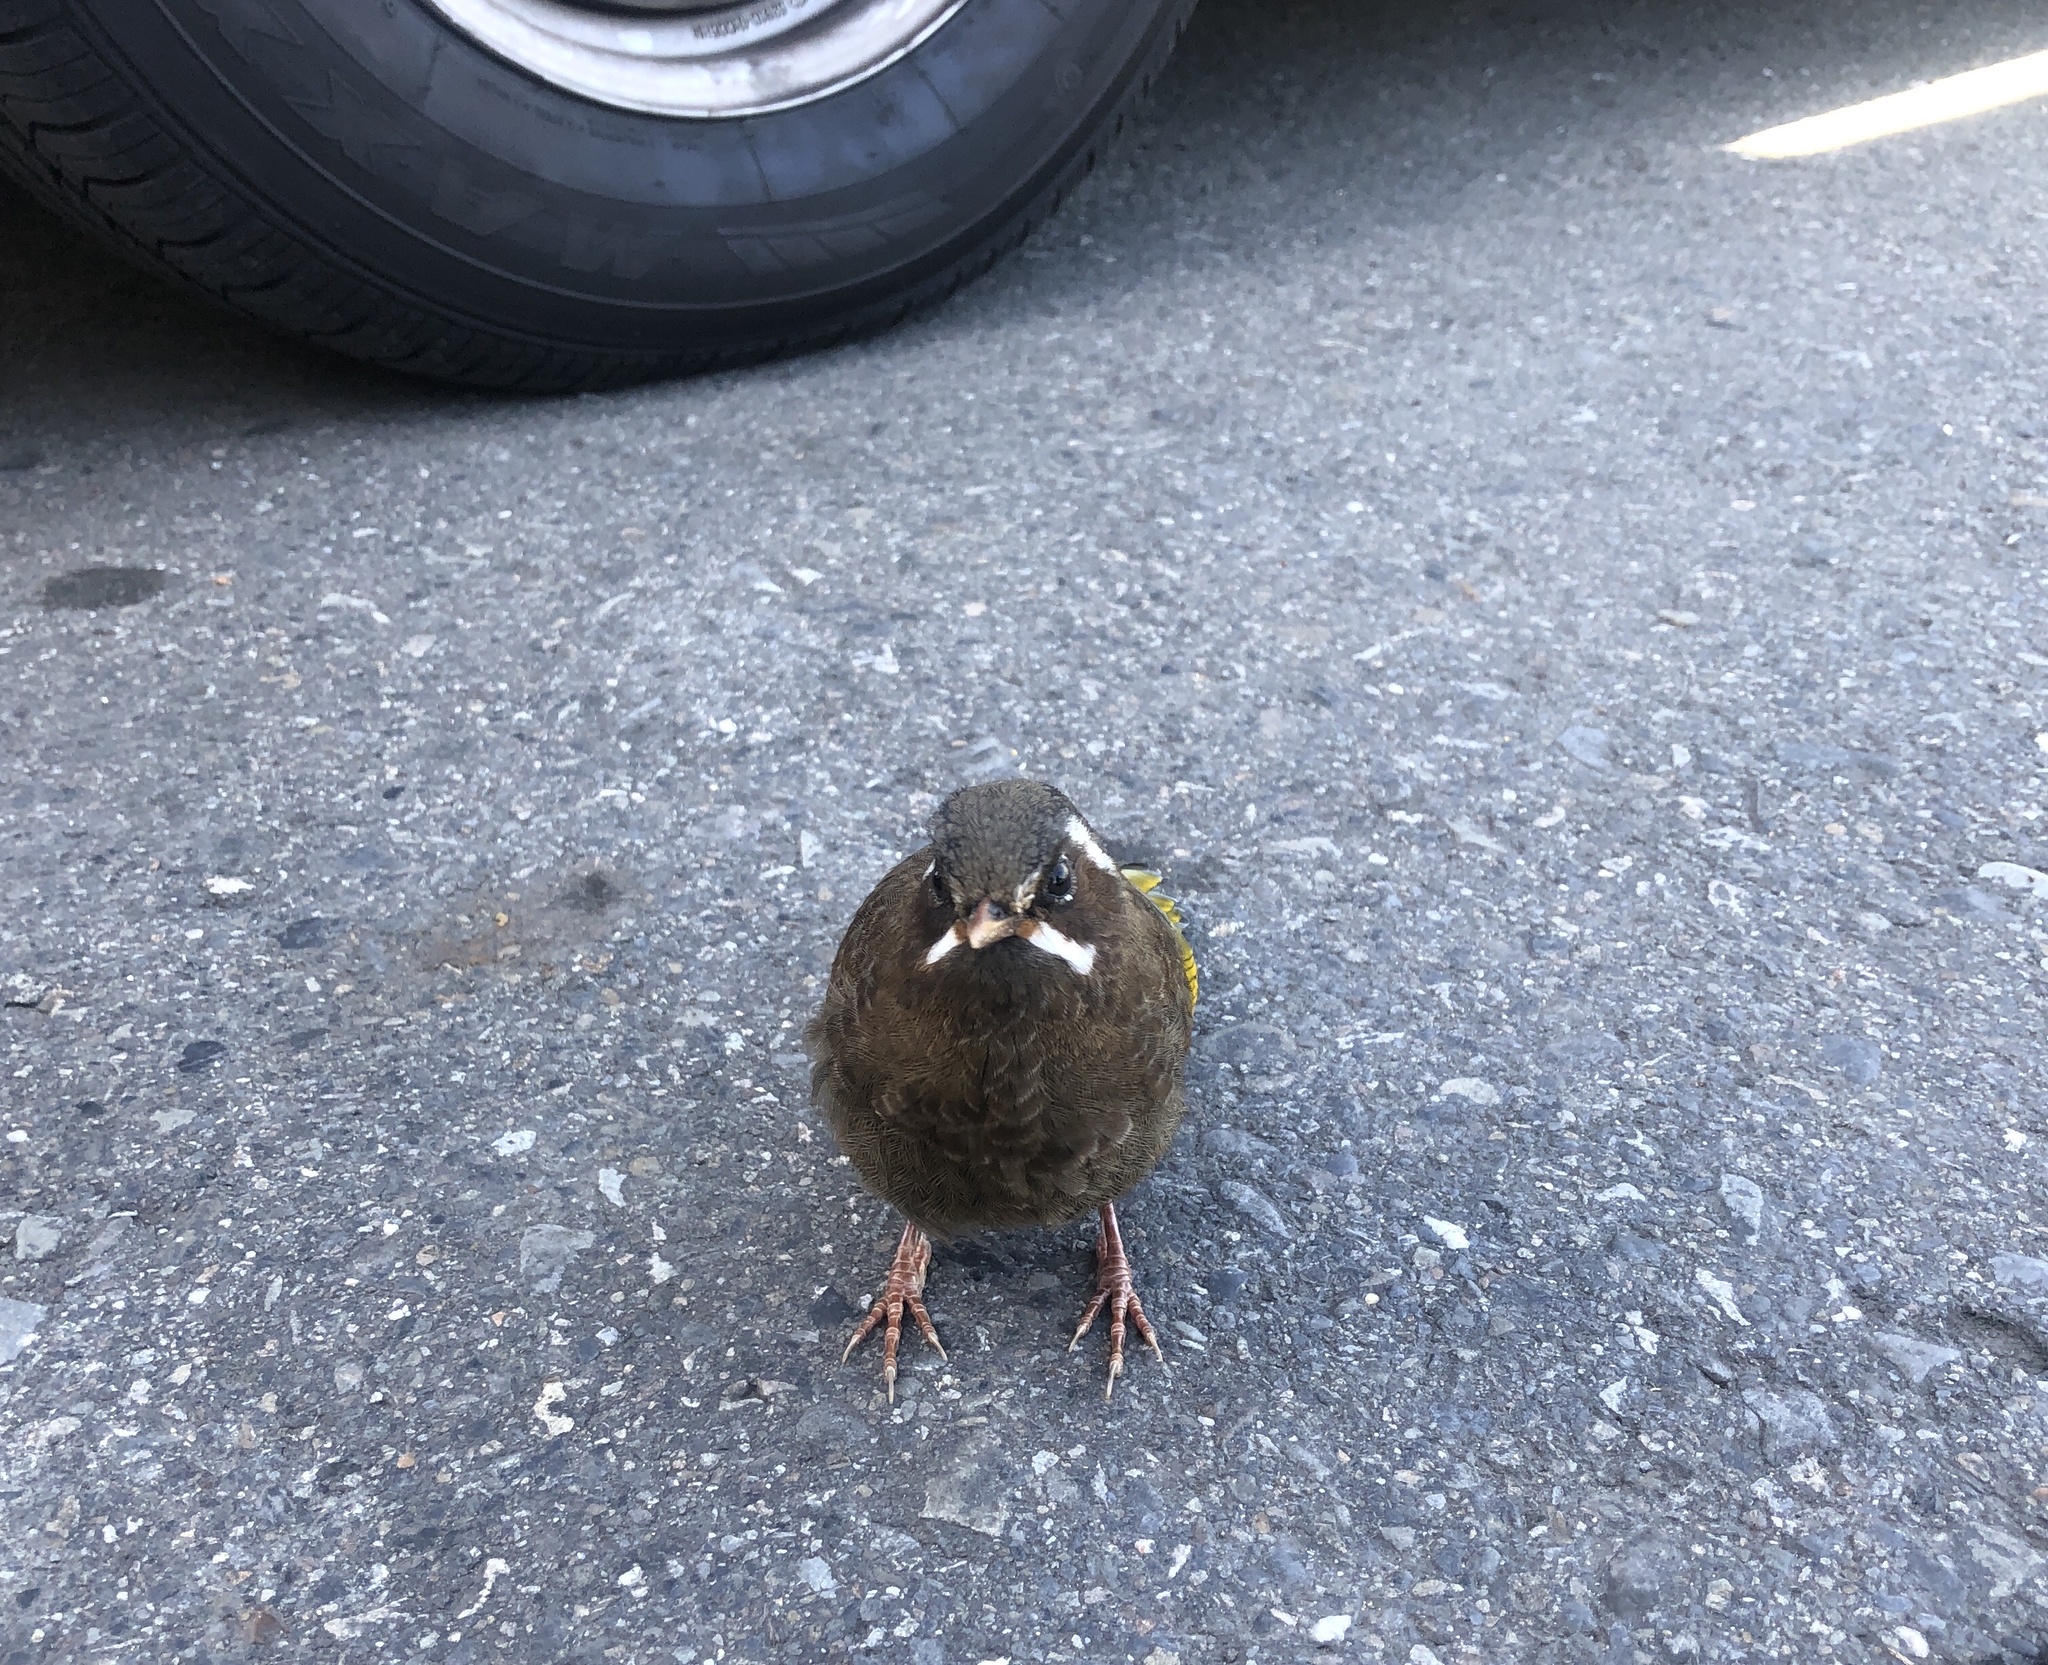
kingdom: Animalia
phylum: Chordata
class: Aves
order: Passeriformes
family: Leiothrichidae
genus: Trochalopteron
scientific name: Trochalopteron morrisonianum
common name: White-whiskered laughingthrush
